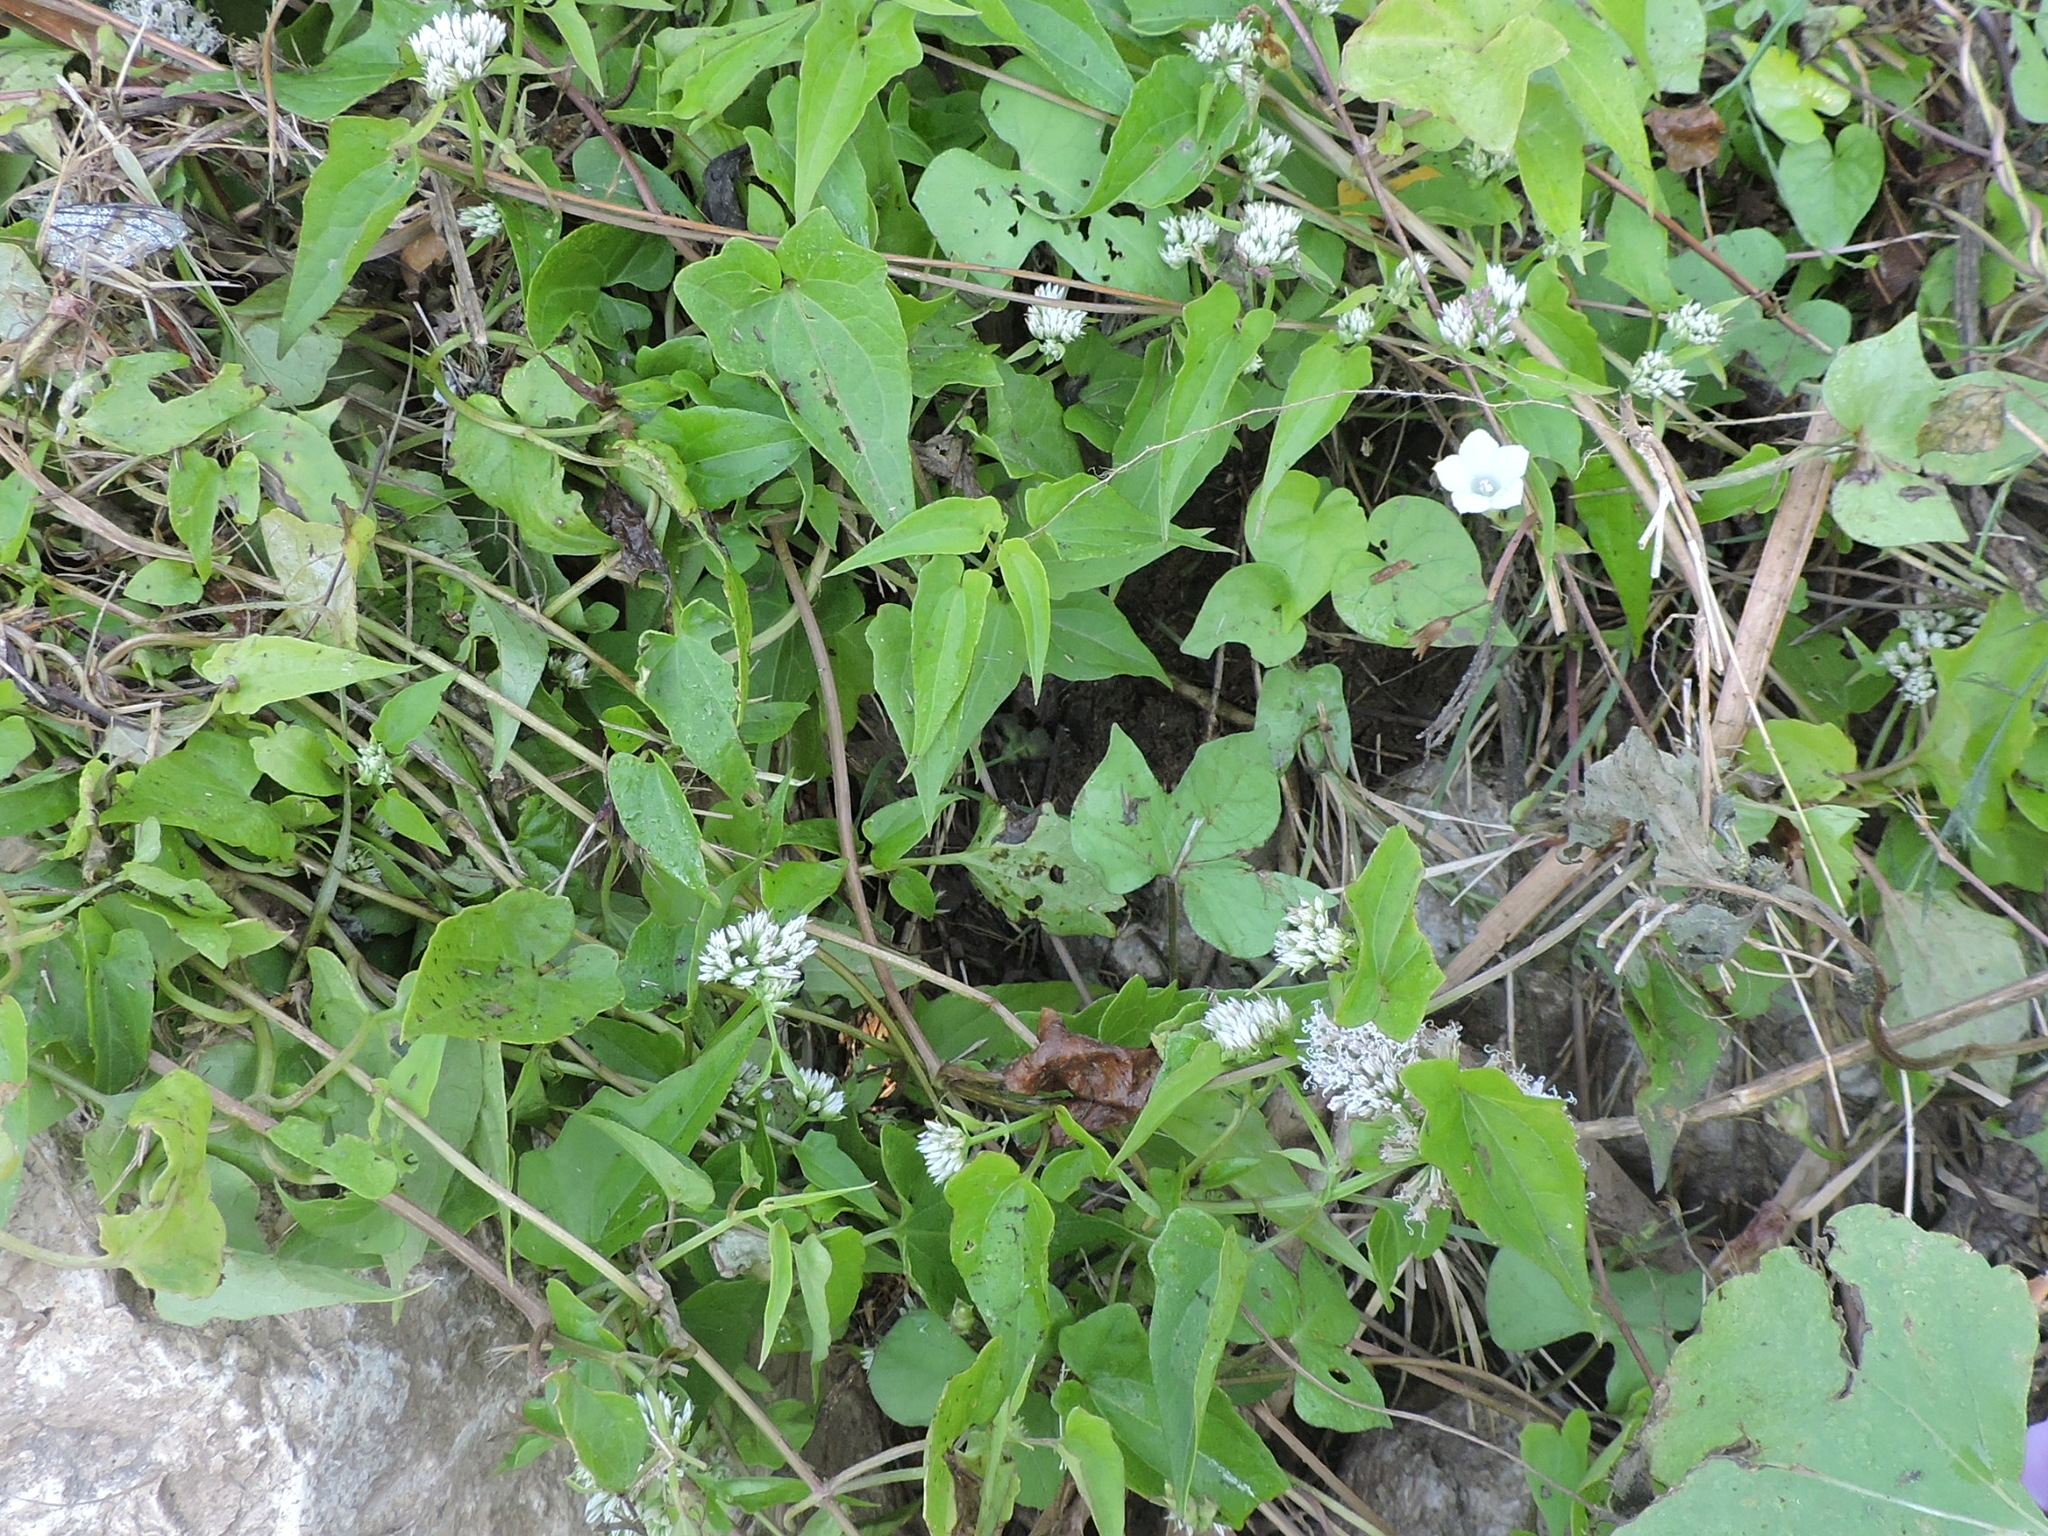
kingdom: Plantae
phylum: Tracheophyta
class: Magnoliopsida
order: Asterales
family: Asteraceae
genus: Mikania
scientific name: Mikania scandens
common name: Climbing hempvine
